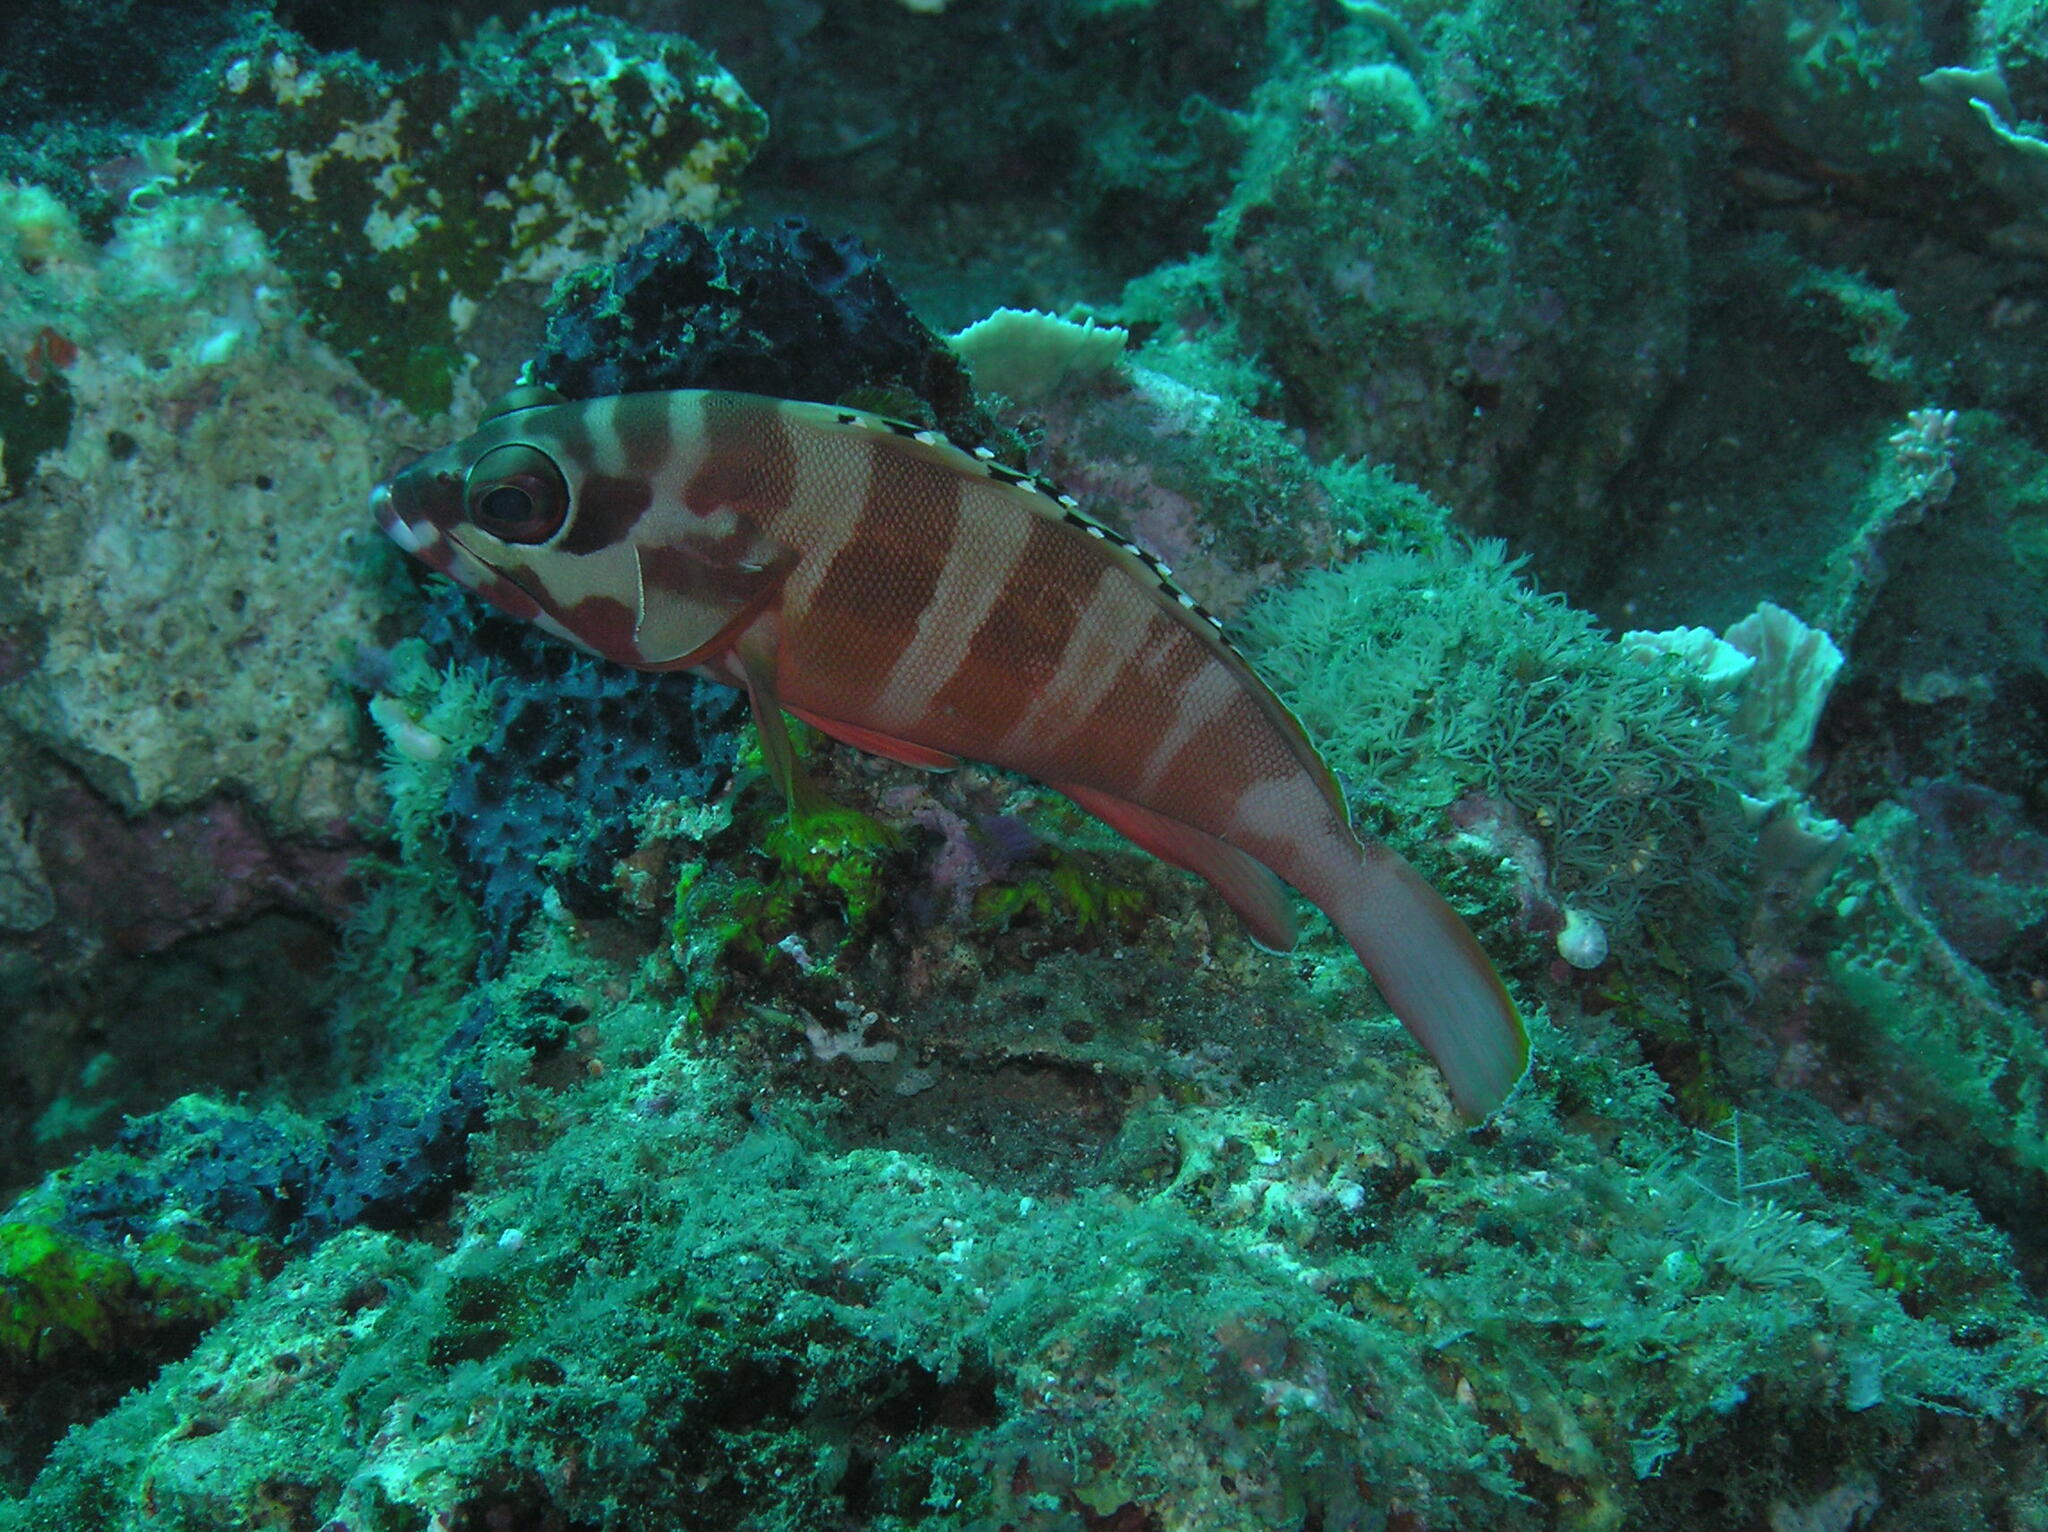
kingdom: Animalia
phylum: Chordata
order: Perciformes
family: Serranidae
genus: Epinephelus
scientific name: Epinephelus fasciatus
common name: Blacktip grouper
